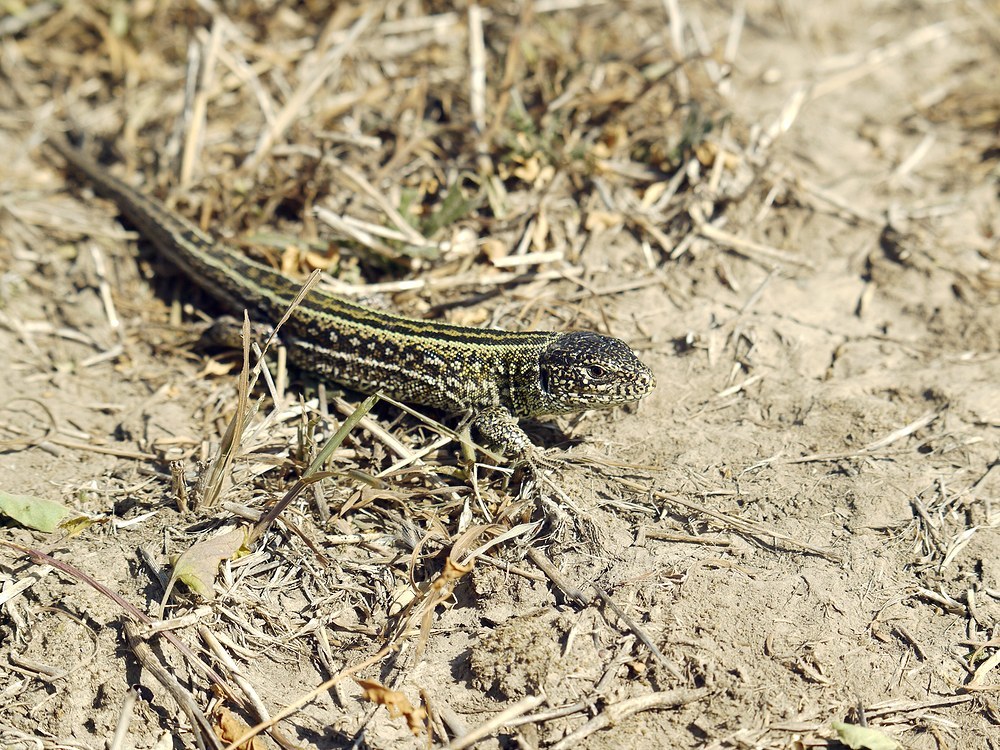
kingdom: Animalia
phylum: Chordata
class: Squamata
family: Lacertidae
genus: Lacerta
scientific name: Lacerta agilis
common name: Sand lizard
